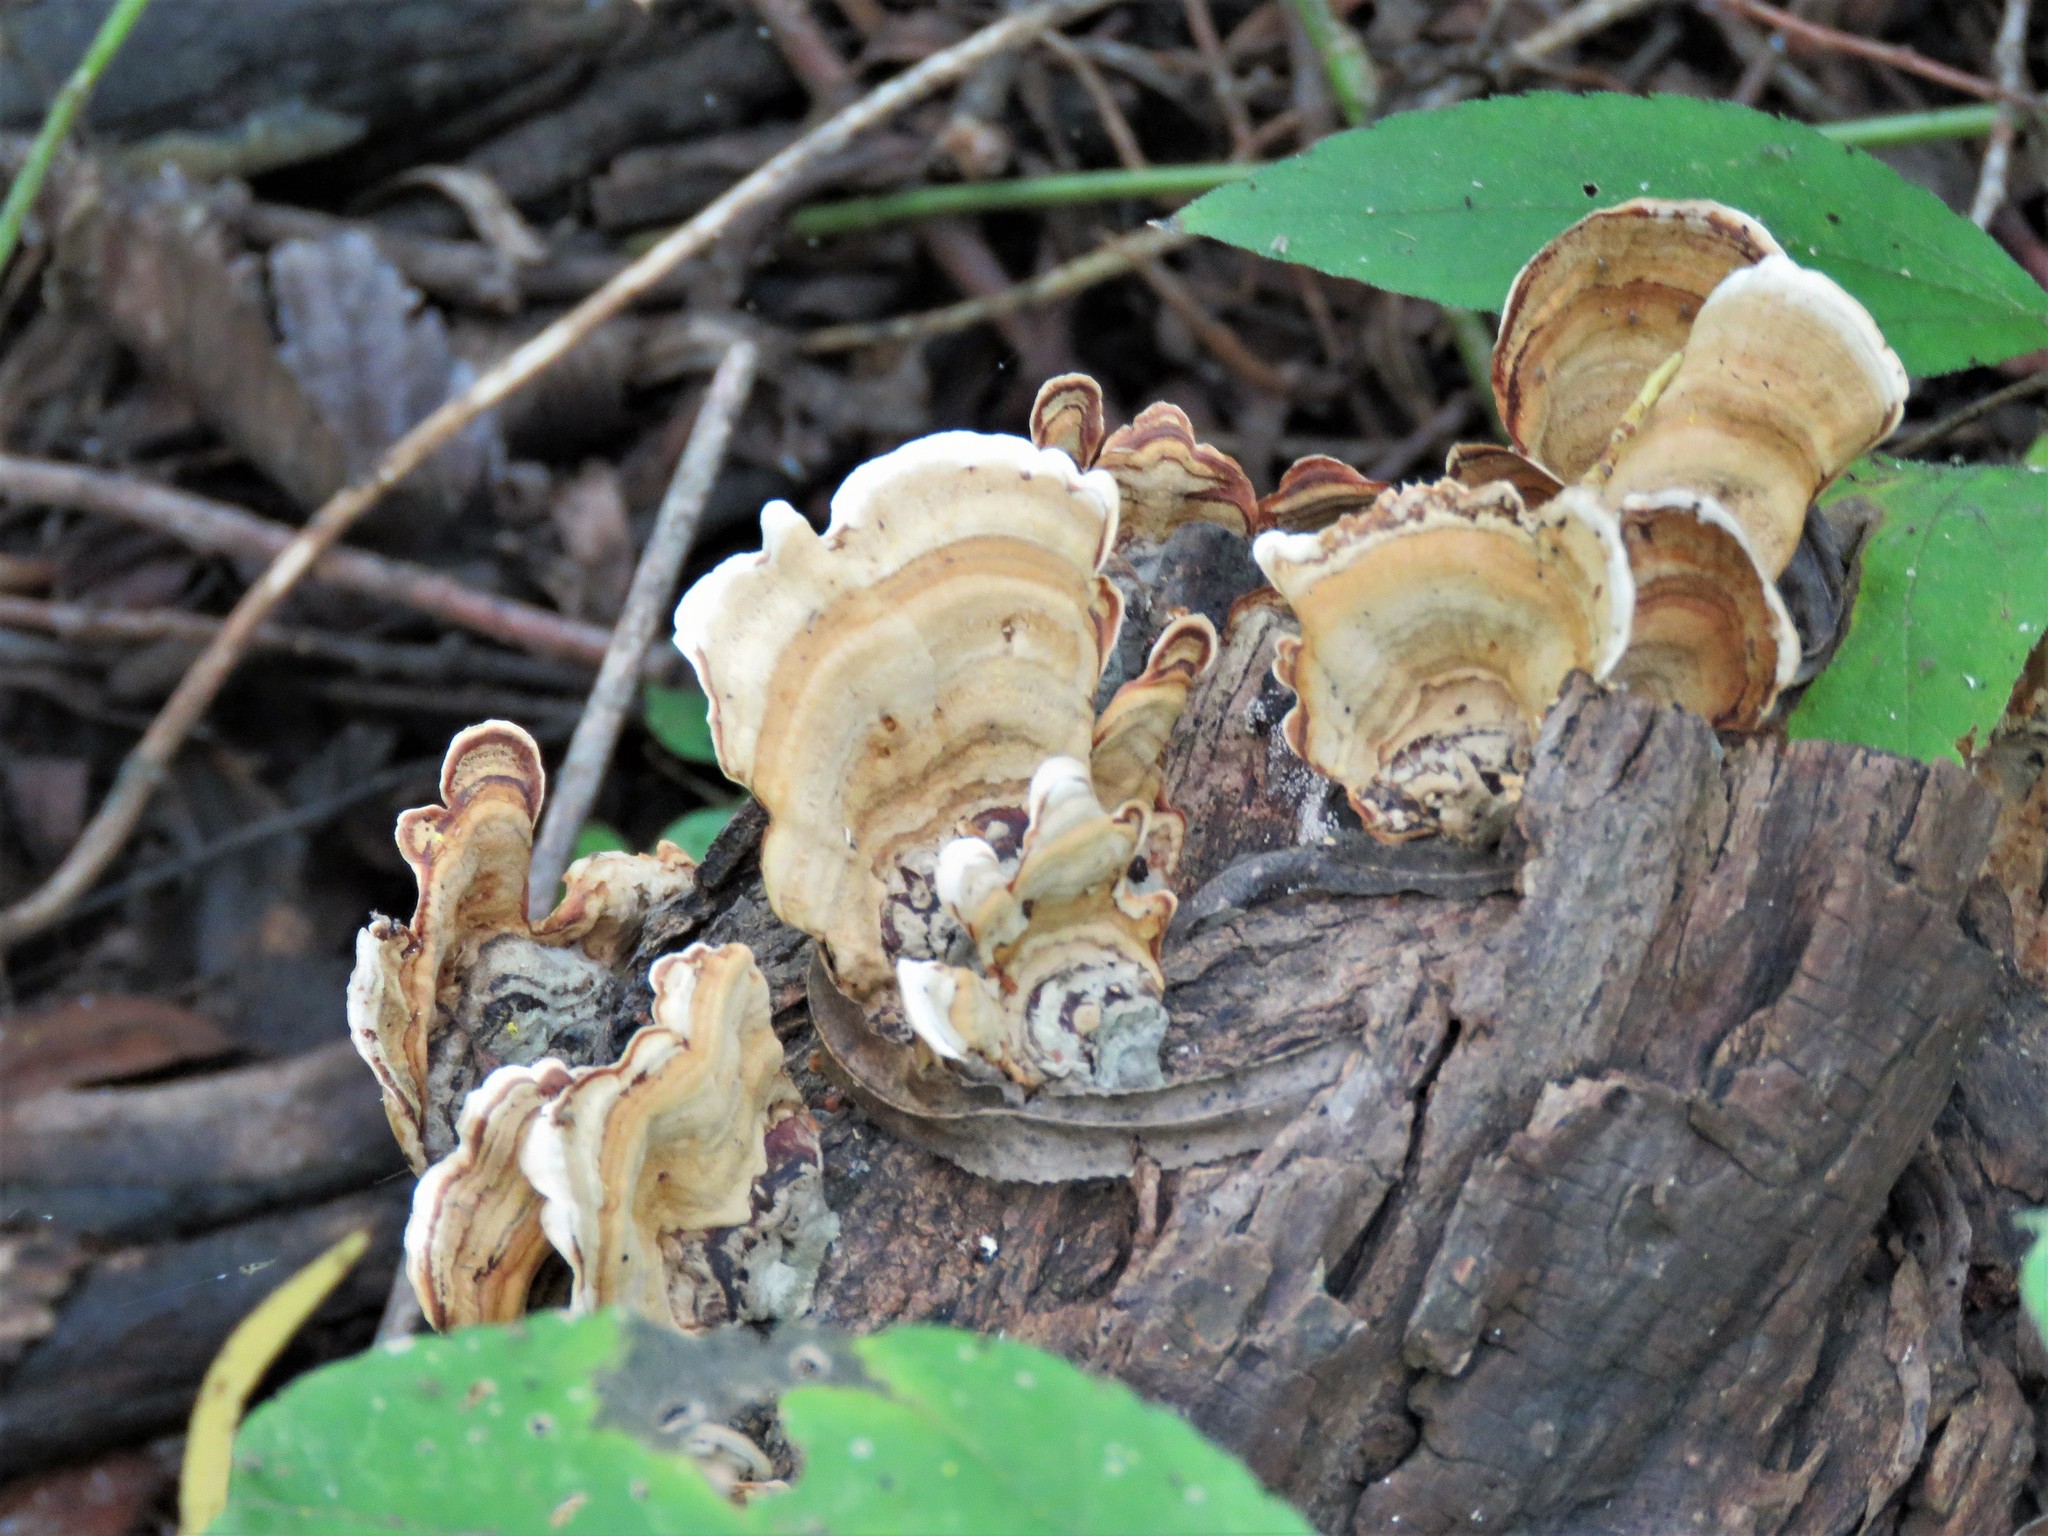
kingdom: Fungi
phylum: Basidiomycota
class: Agaricomycetes
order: Russulales
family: Stereaceae
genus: Stereum
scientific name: Stereum ostrea
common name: False turkeytail
